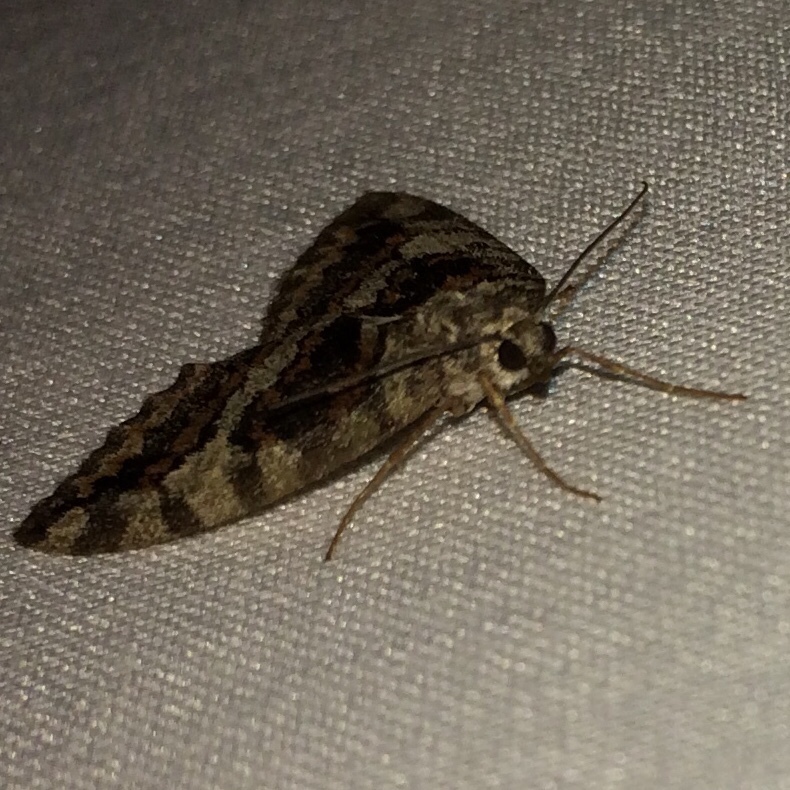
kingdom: Animalia
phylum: Arthropoda
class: Insecta
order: Lepidoptera
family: Geometridae
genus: Hydriomena
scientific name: Hydriomena nubilofasciata
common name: Oak winter highflier moth
